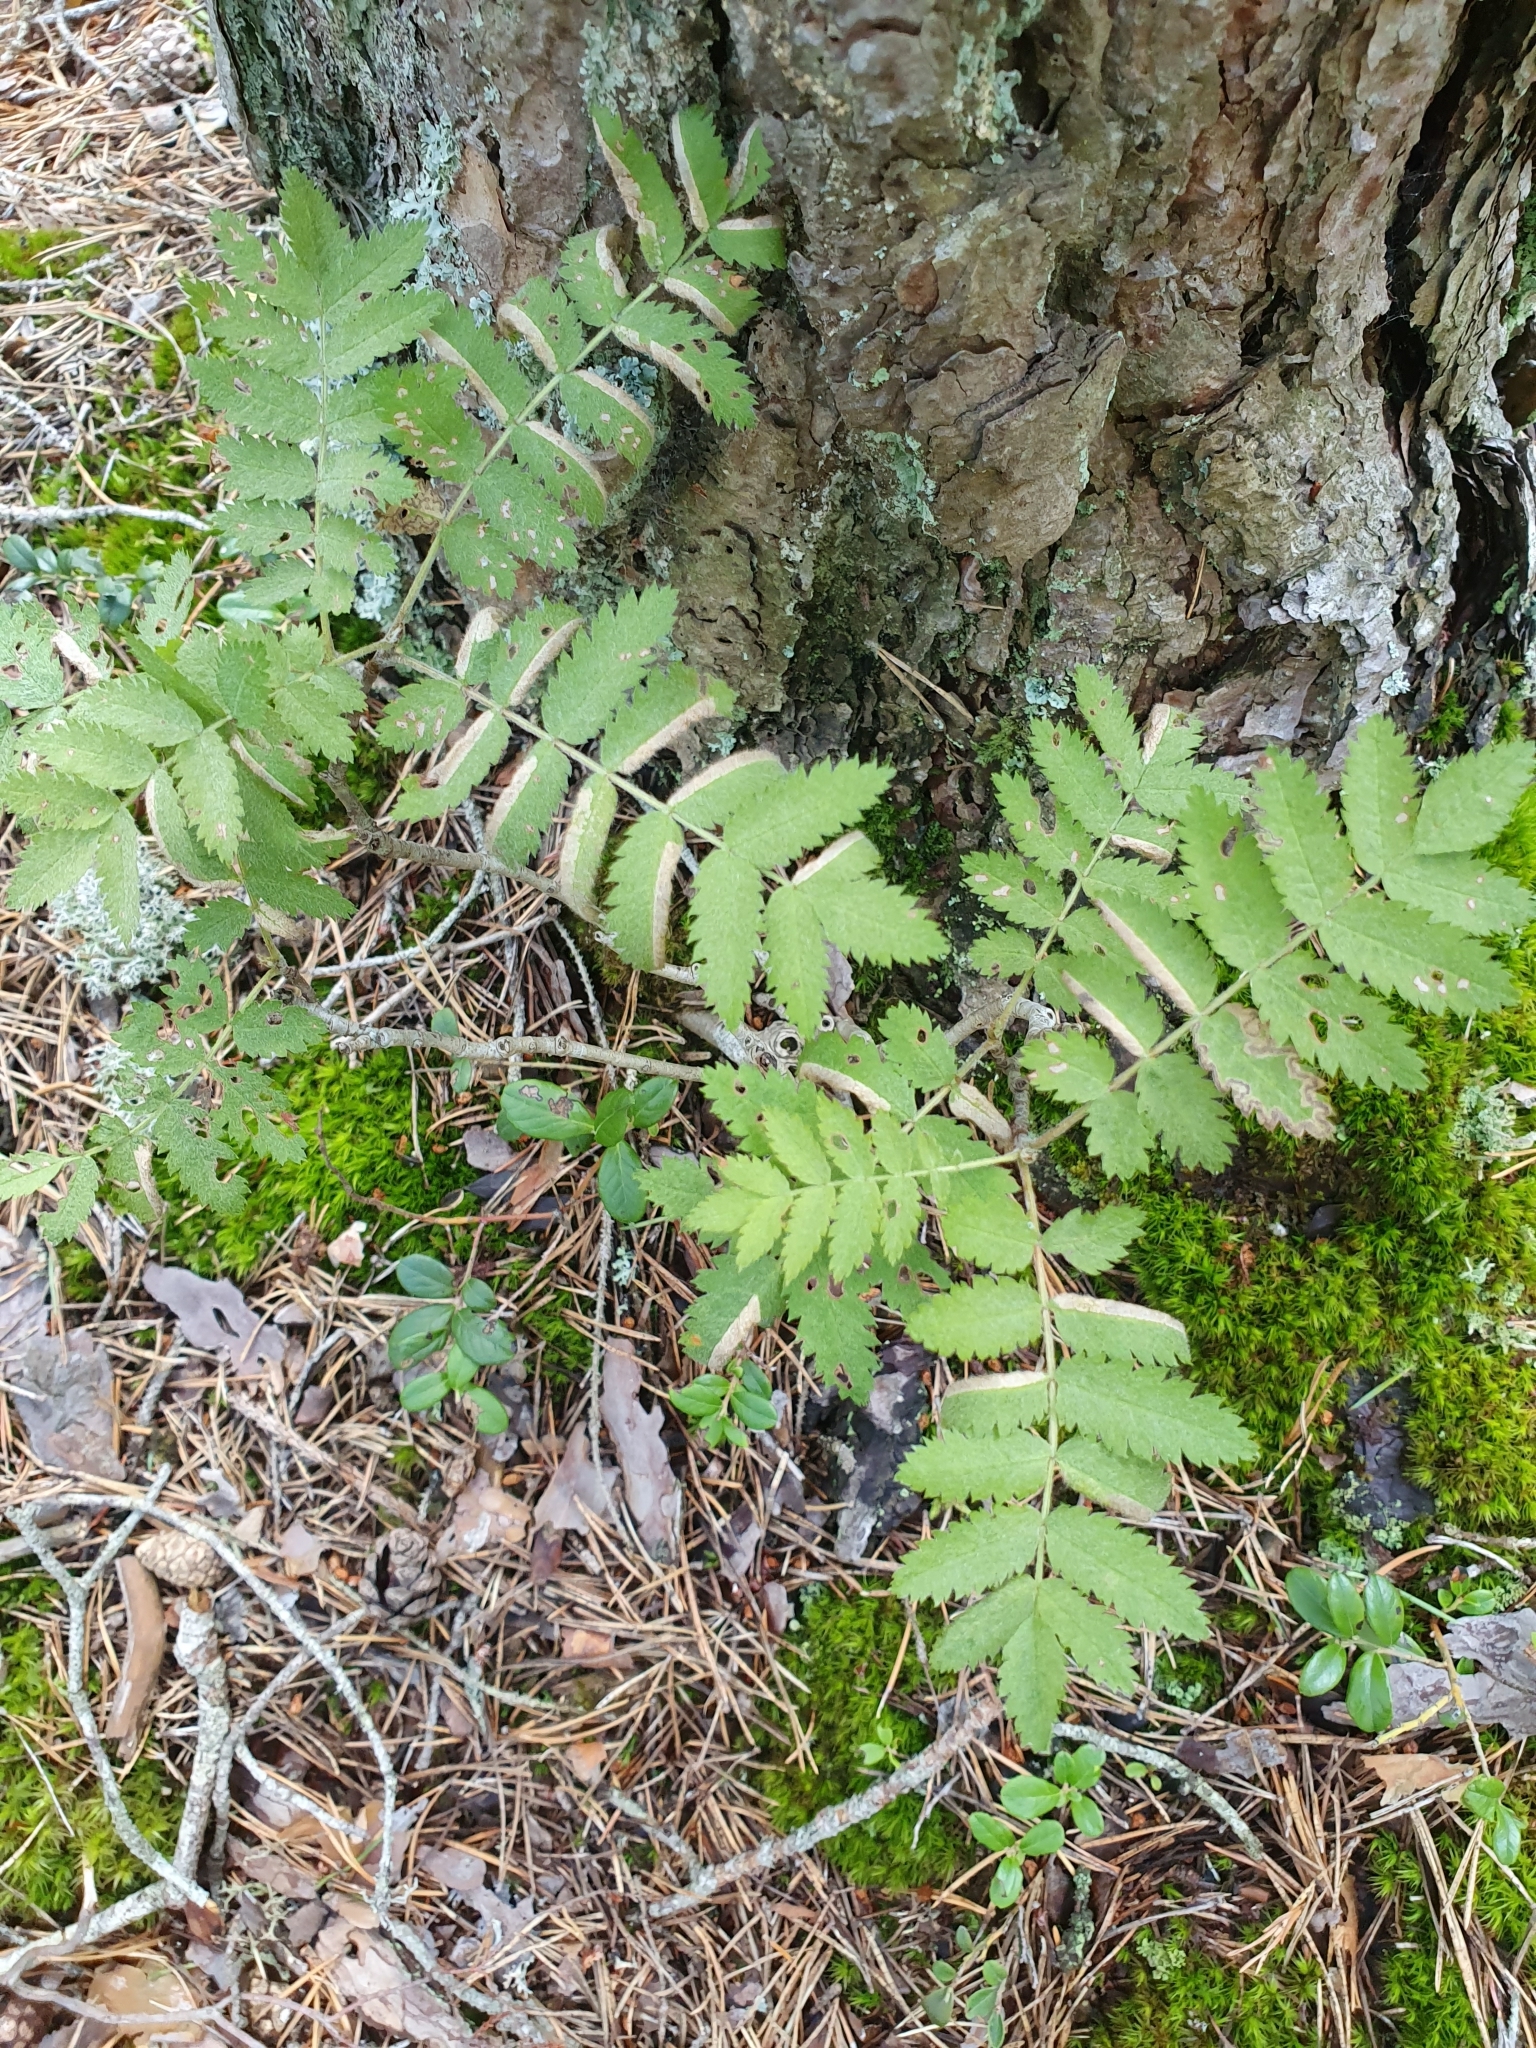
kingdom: Plantae
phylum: Tracheophyta
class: Magnoliopsida
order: Rosales
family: Rosaceae
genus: Sorbus
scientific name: Sorbus aucuparia
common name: Rowan
